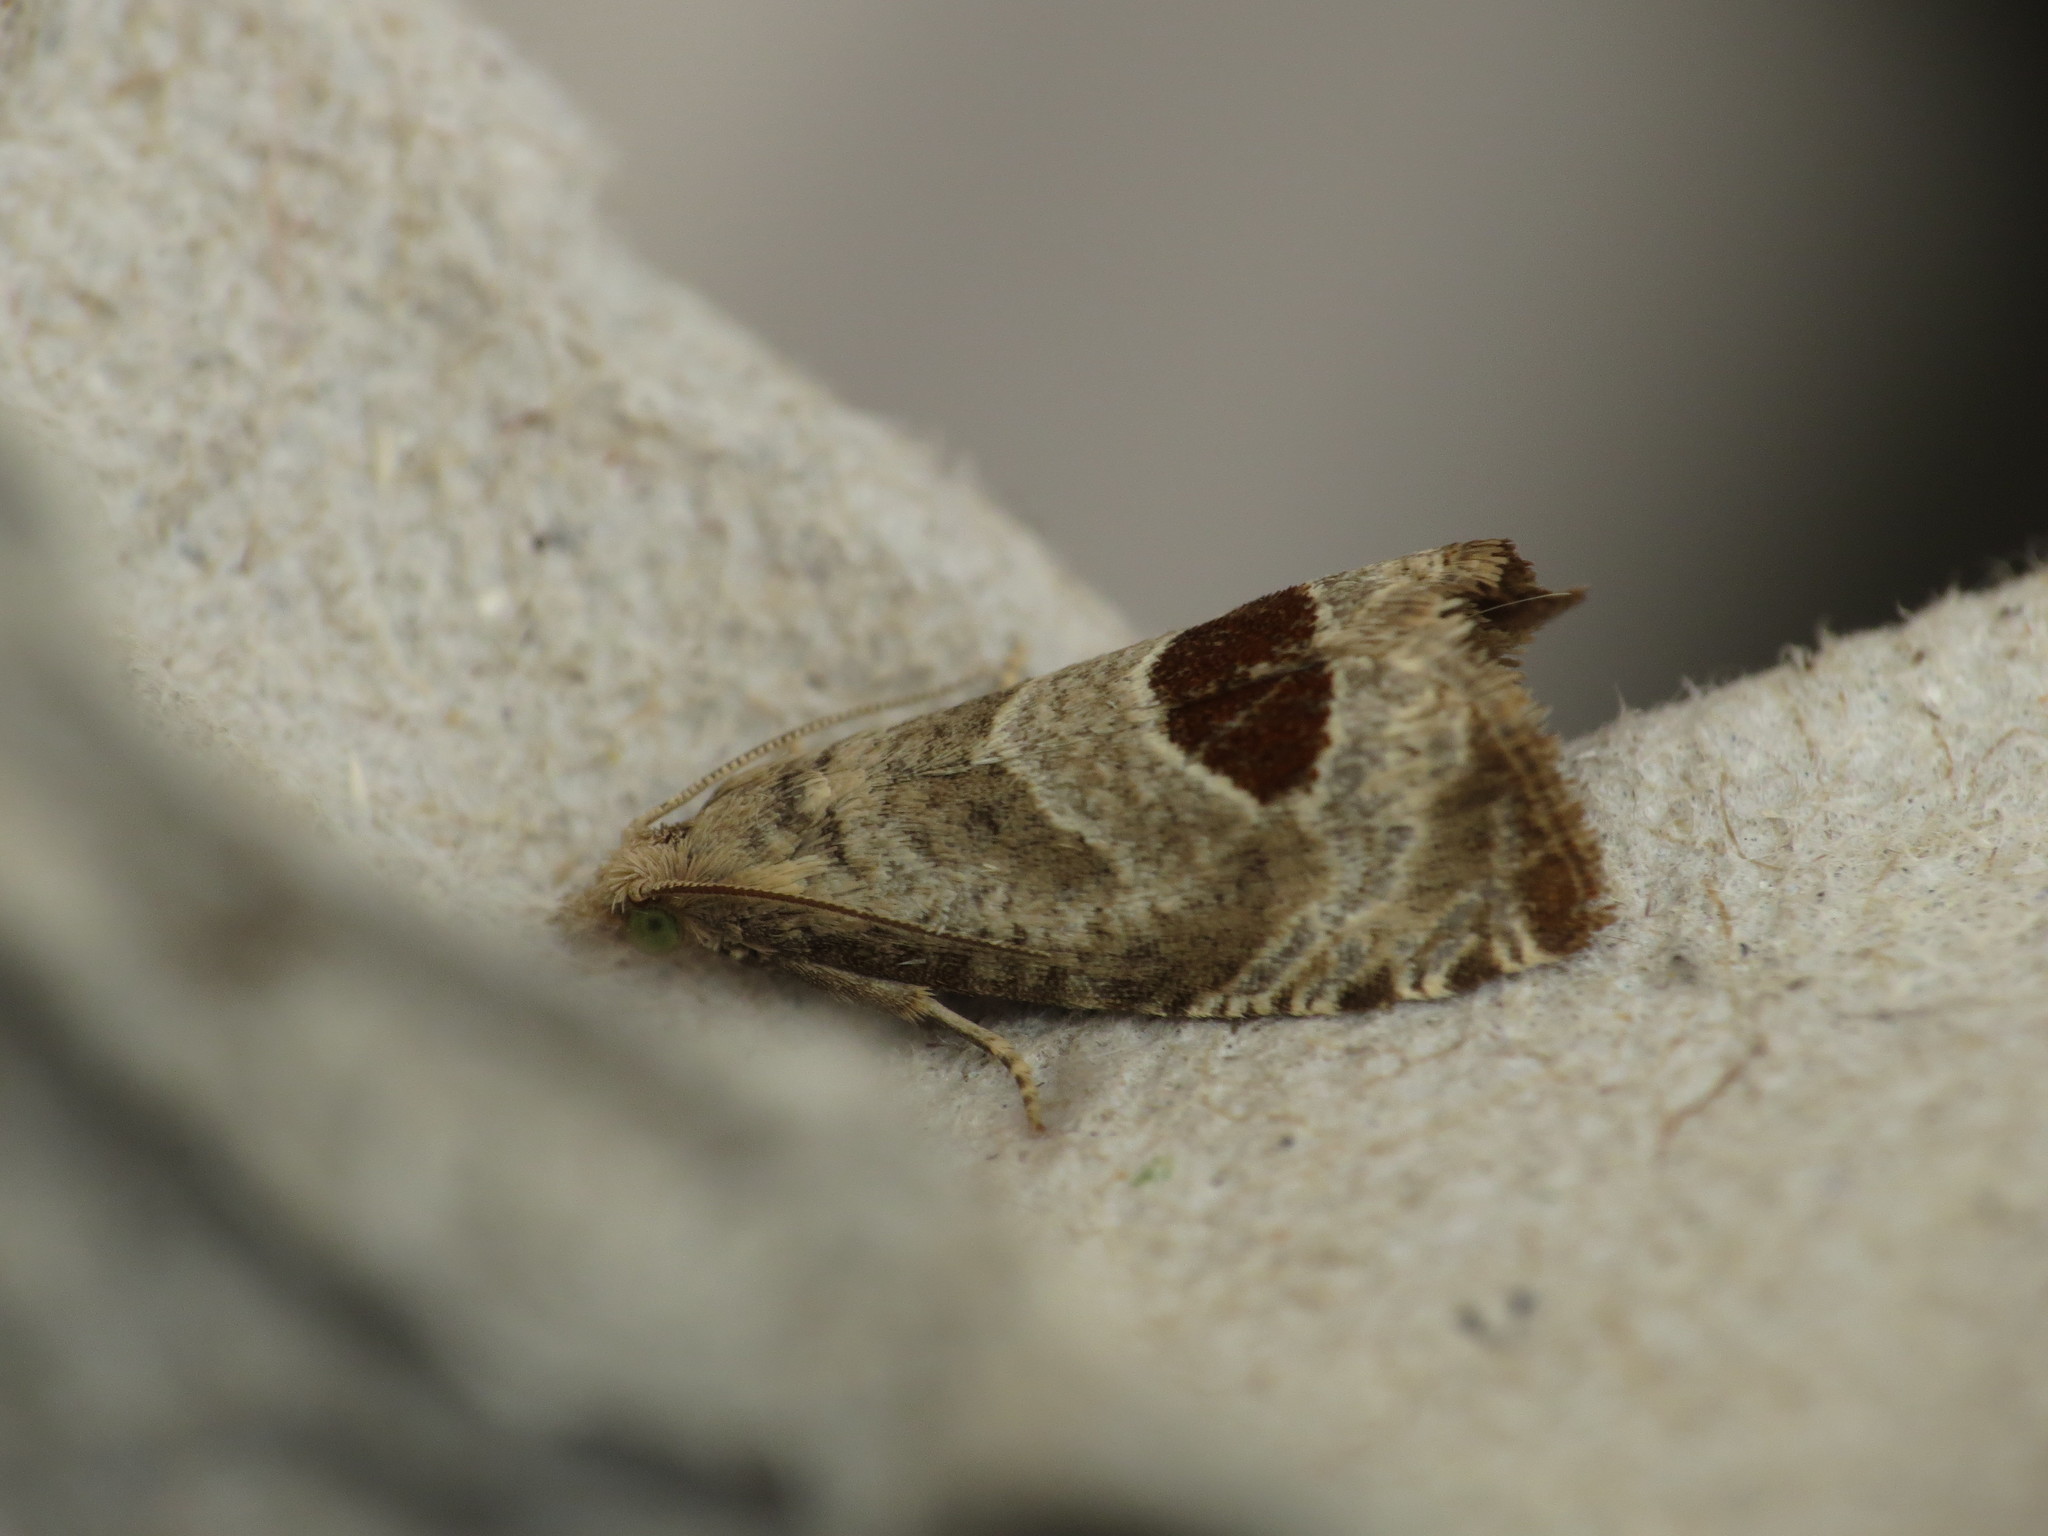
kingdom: Animalia
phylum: Arthropoda
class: Insecta
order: Lepidoptera
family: Tortricidae
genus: Notocelia
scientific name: Notocelia uddmanniana
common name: Bramble shoot moth
